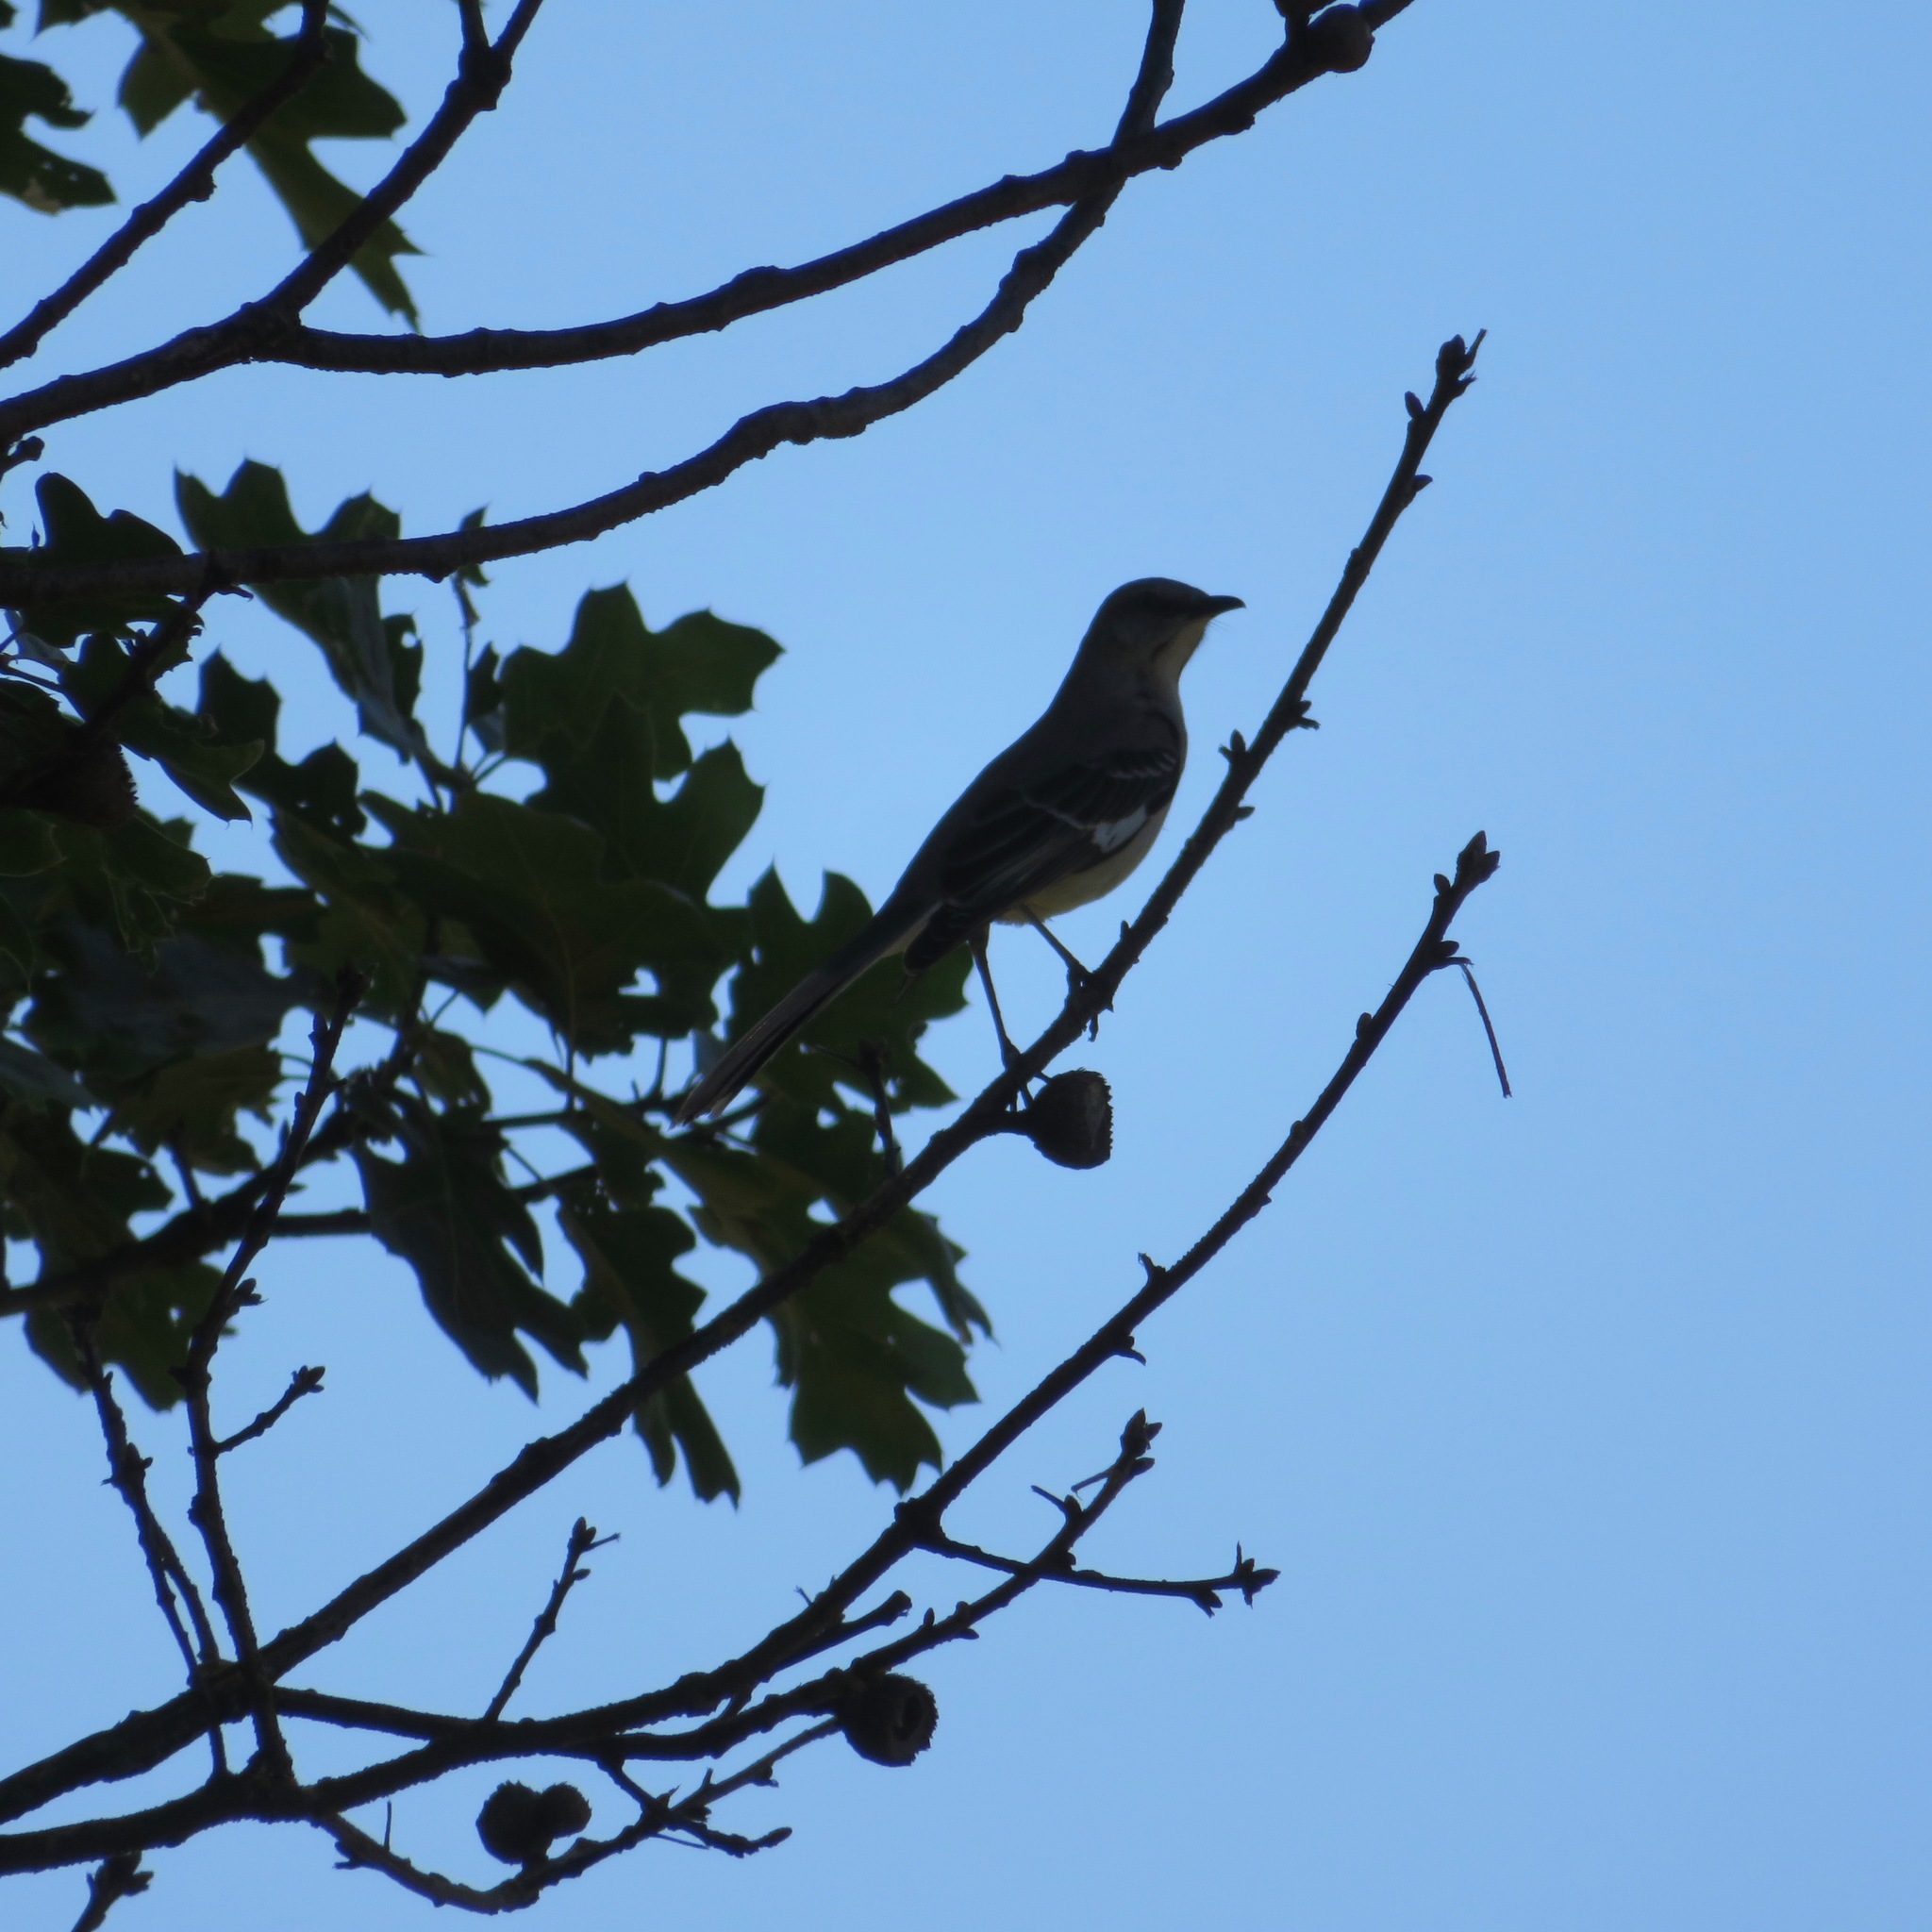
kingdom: Animalia
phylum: Chordata
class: Aves
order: Passeriformes
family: Mimidae
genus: Mimus
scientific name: Mimus polyglottos
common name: Northern mockingbird
